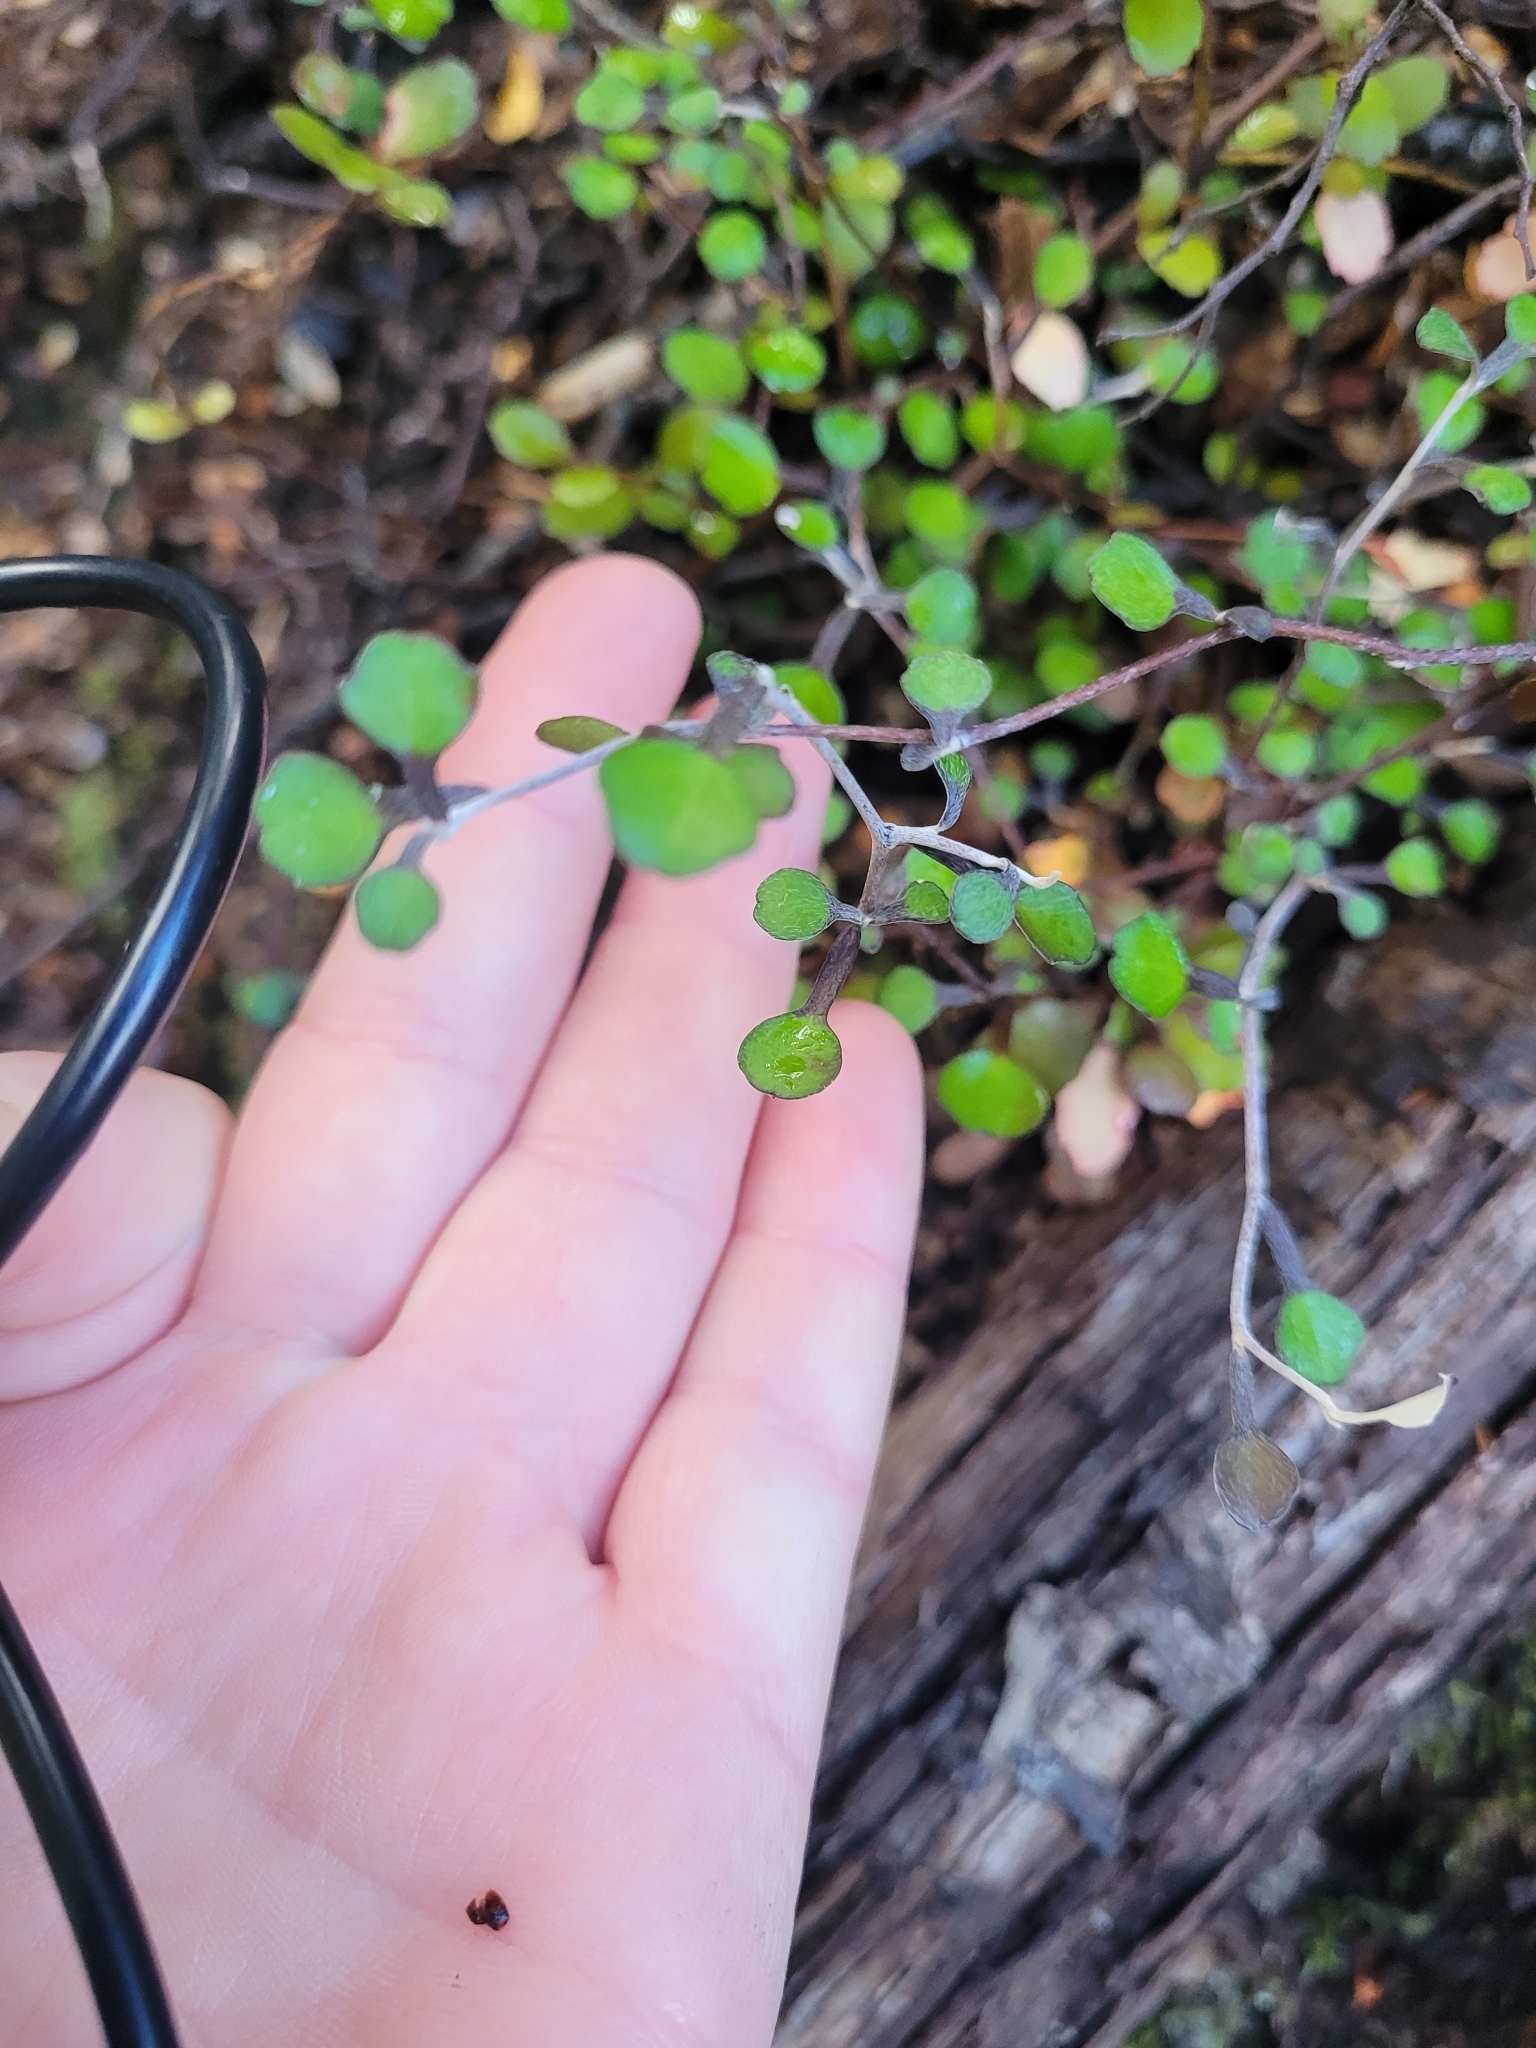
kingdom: Plantae
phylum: Tracheophyta
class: Magnoliopsida
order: Asterales
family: Argophyllaceae
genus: Corokia
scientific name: Corokia cotoneaster
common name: Wire nettingbush
